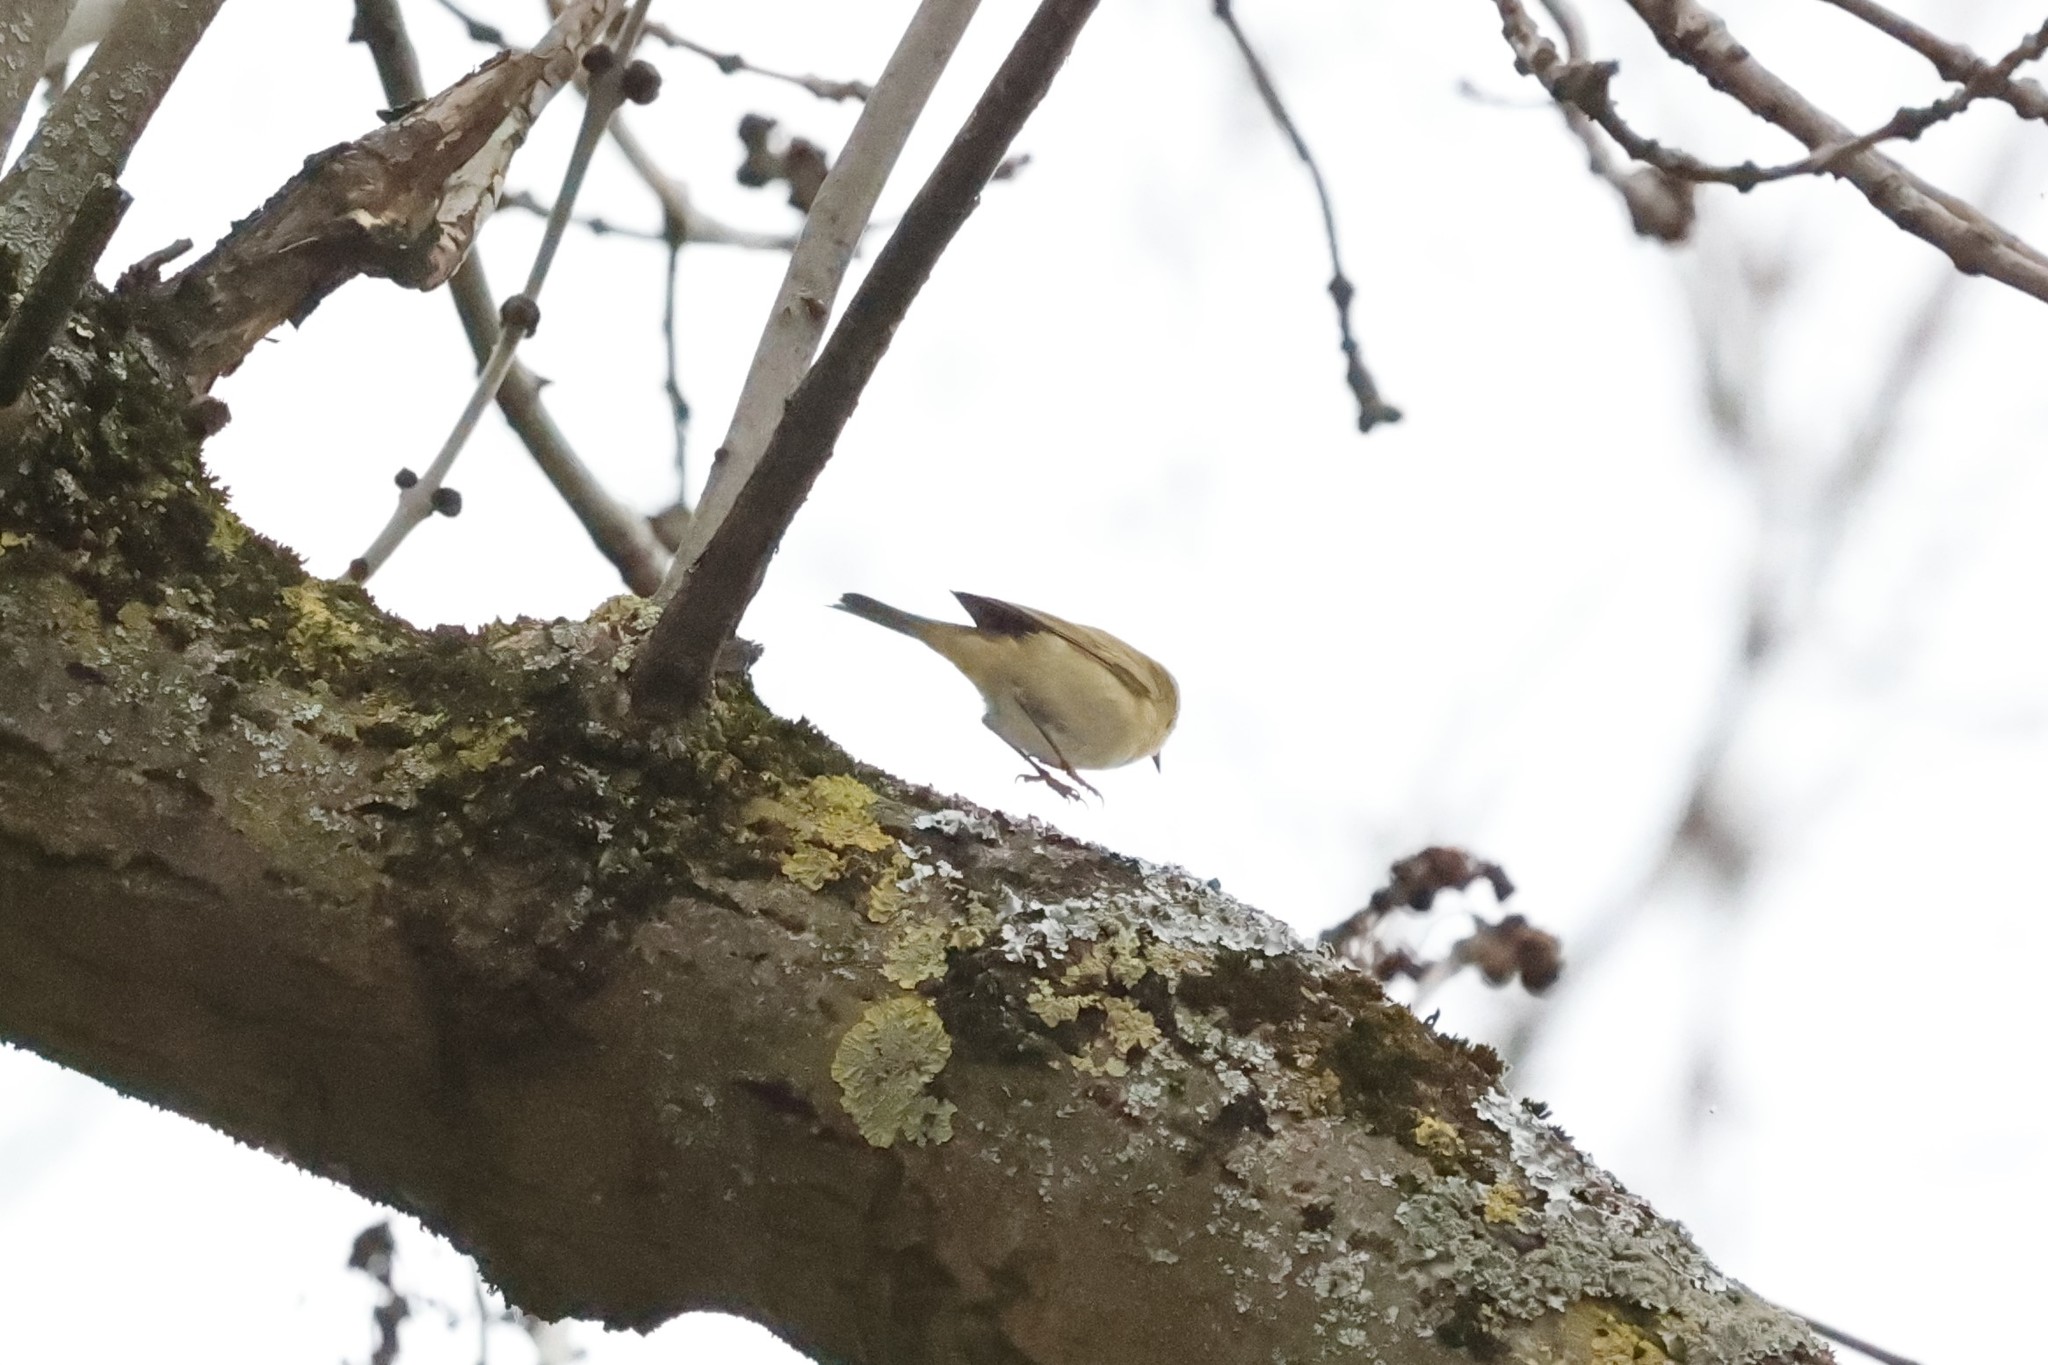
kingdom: Animalia
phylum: Chordata
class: Aves
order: Passeriformes
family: Phylloscopidae
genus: Phylloscopus
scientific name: Phylloscopus collybita
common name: Common chiffchaff
